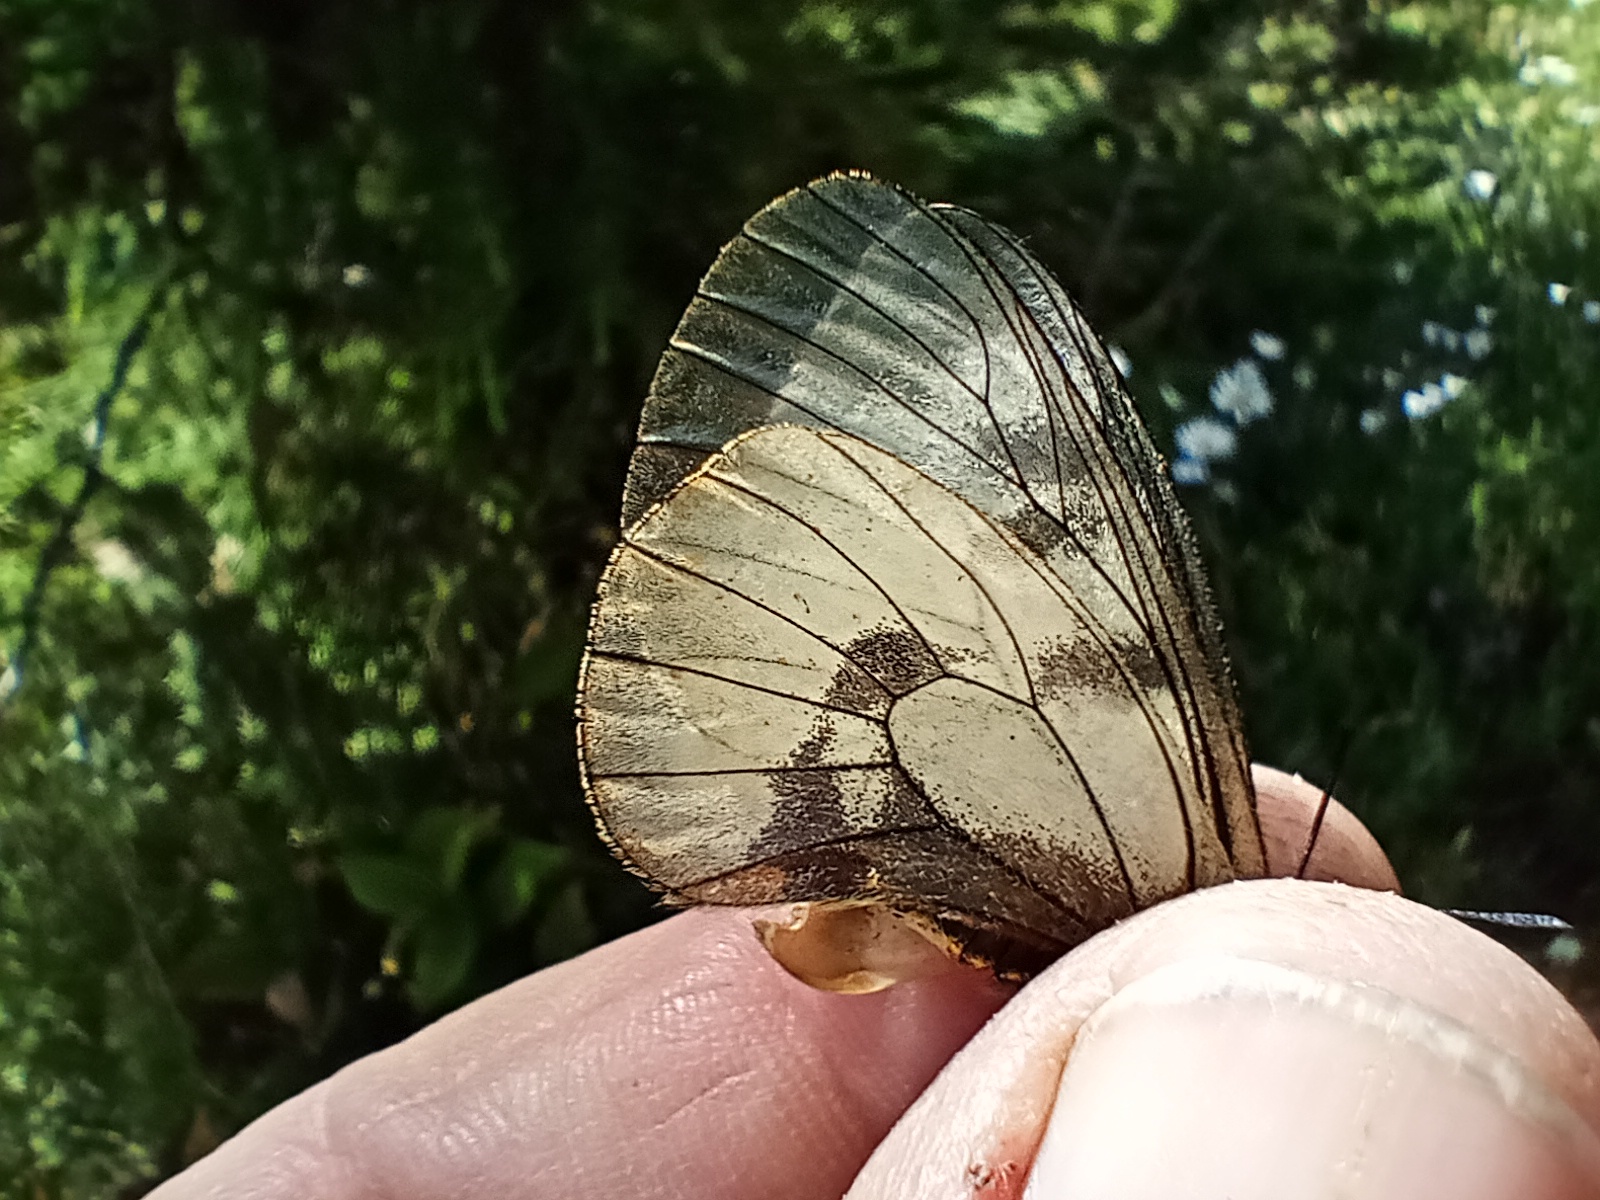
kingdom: Animalia
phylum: Arthropoda
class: Insecta
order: Lepidoptera
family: Papilionidae
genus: Parnassius
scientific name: Parnassius mnemosyne
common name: Clouded apollo
